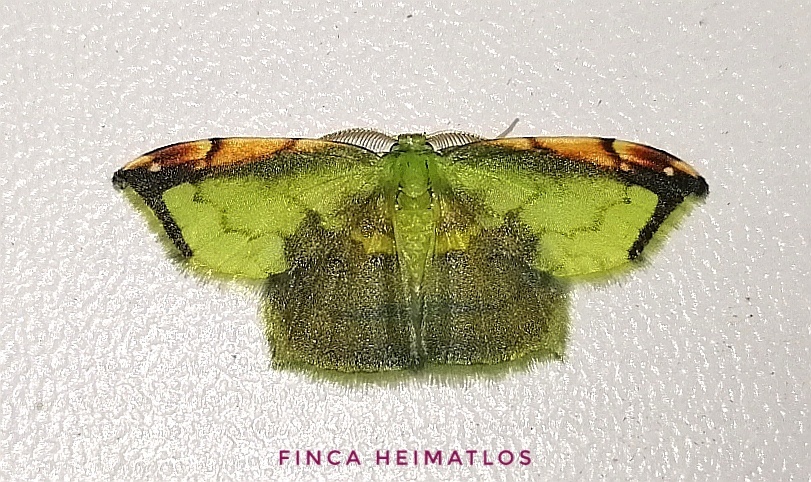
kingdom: Animalia
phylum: Arthropoda
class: Insecta
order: Lepidoptera
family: Geometridae
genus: Hydata
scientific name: Hydata busa
